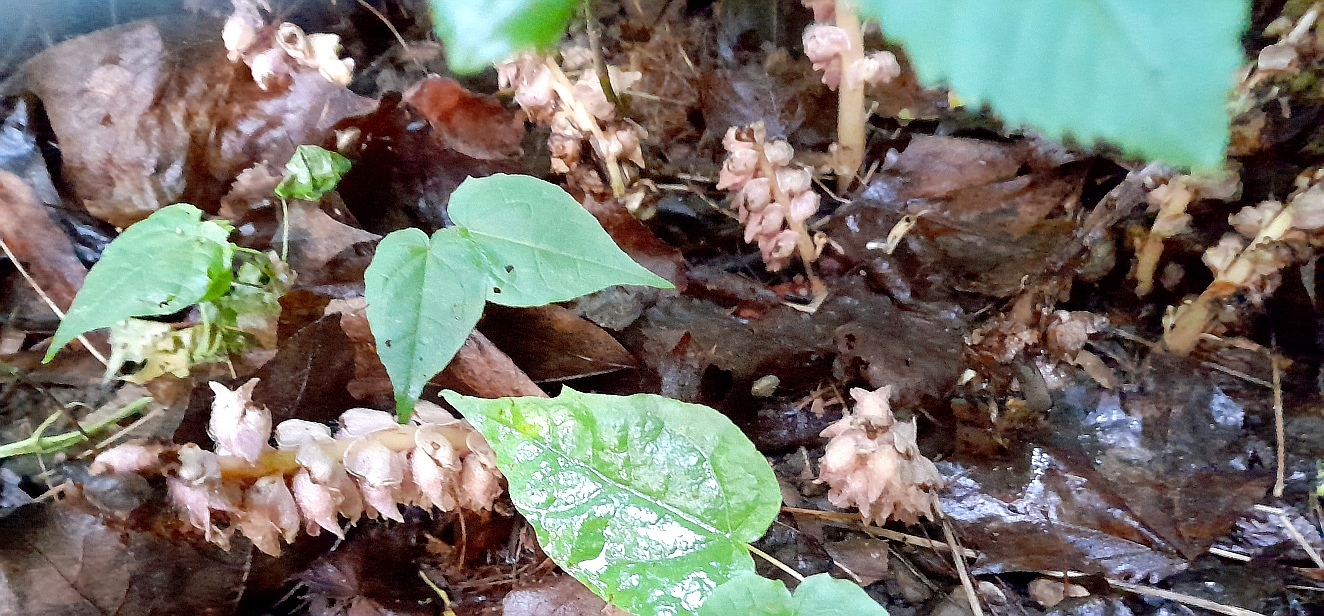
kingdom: Plantae
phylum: Tracheophyta
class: Magnoliopsida
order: Lamiales
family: Orobanchaceae
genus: Lathraea
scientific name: Lathraea squamaria
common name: Toothwort
